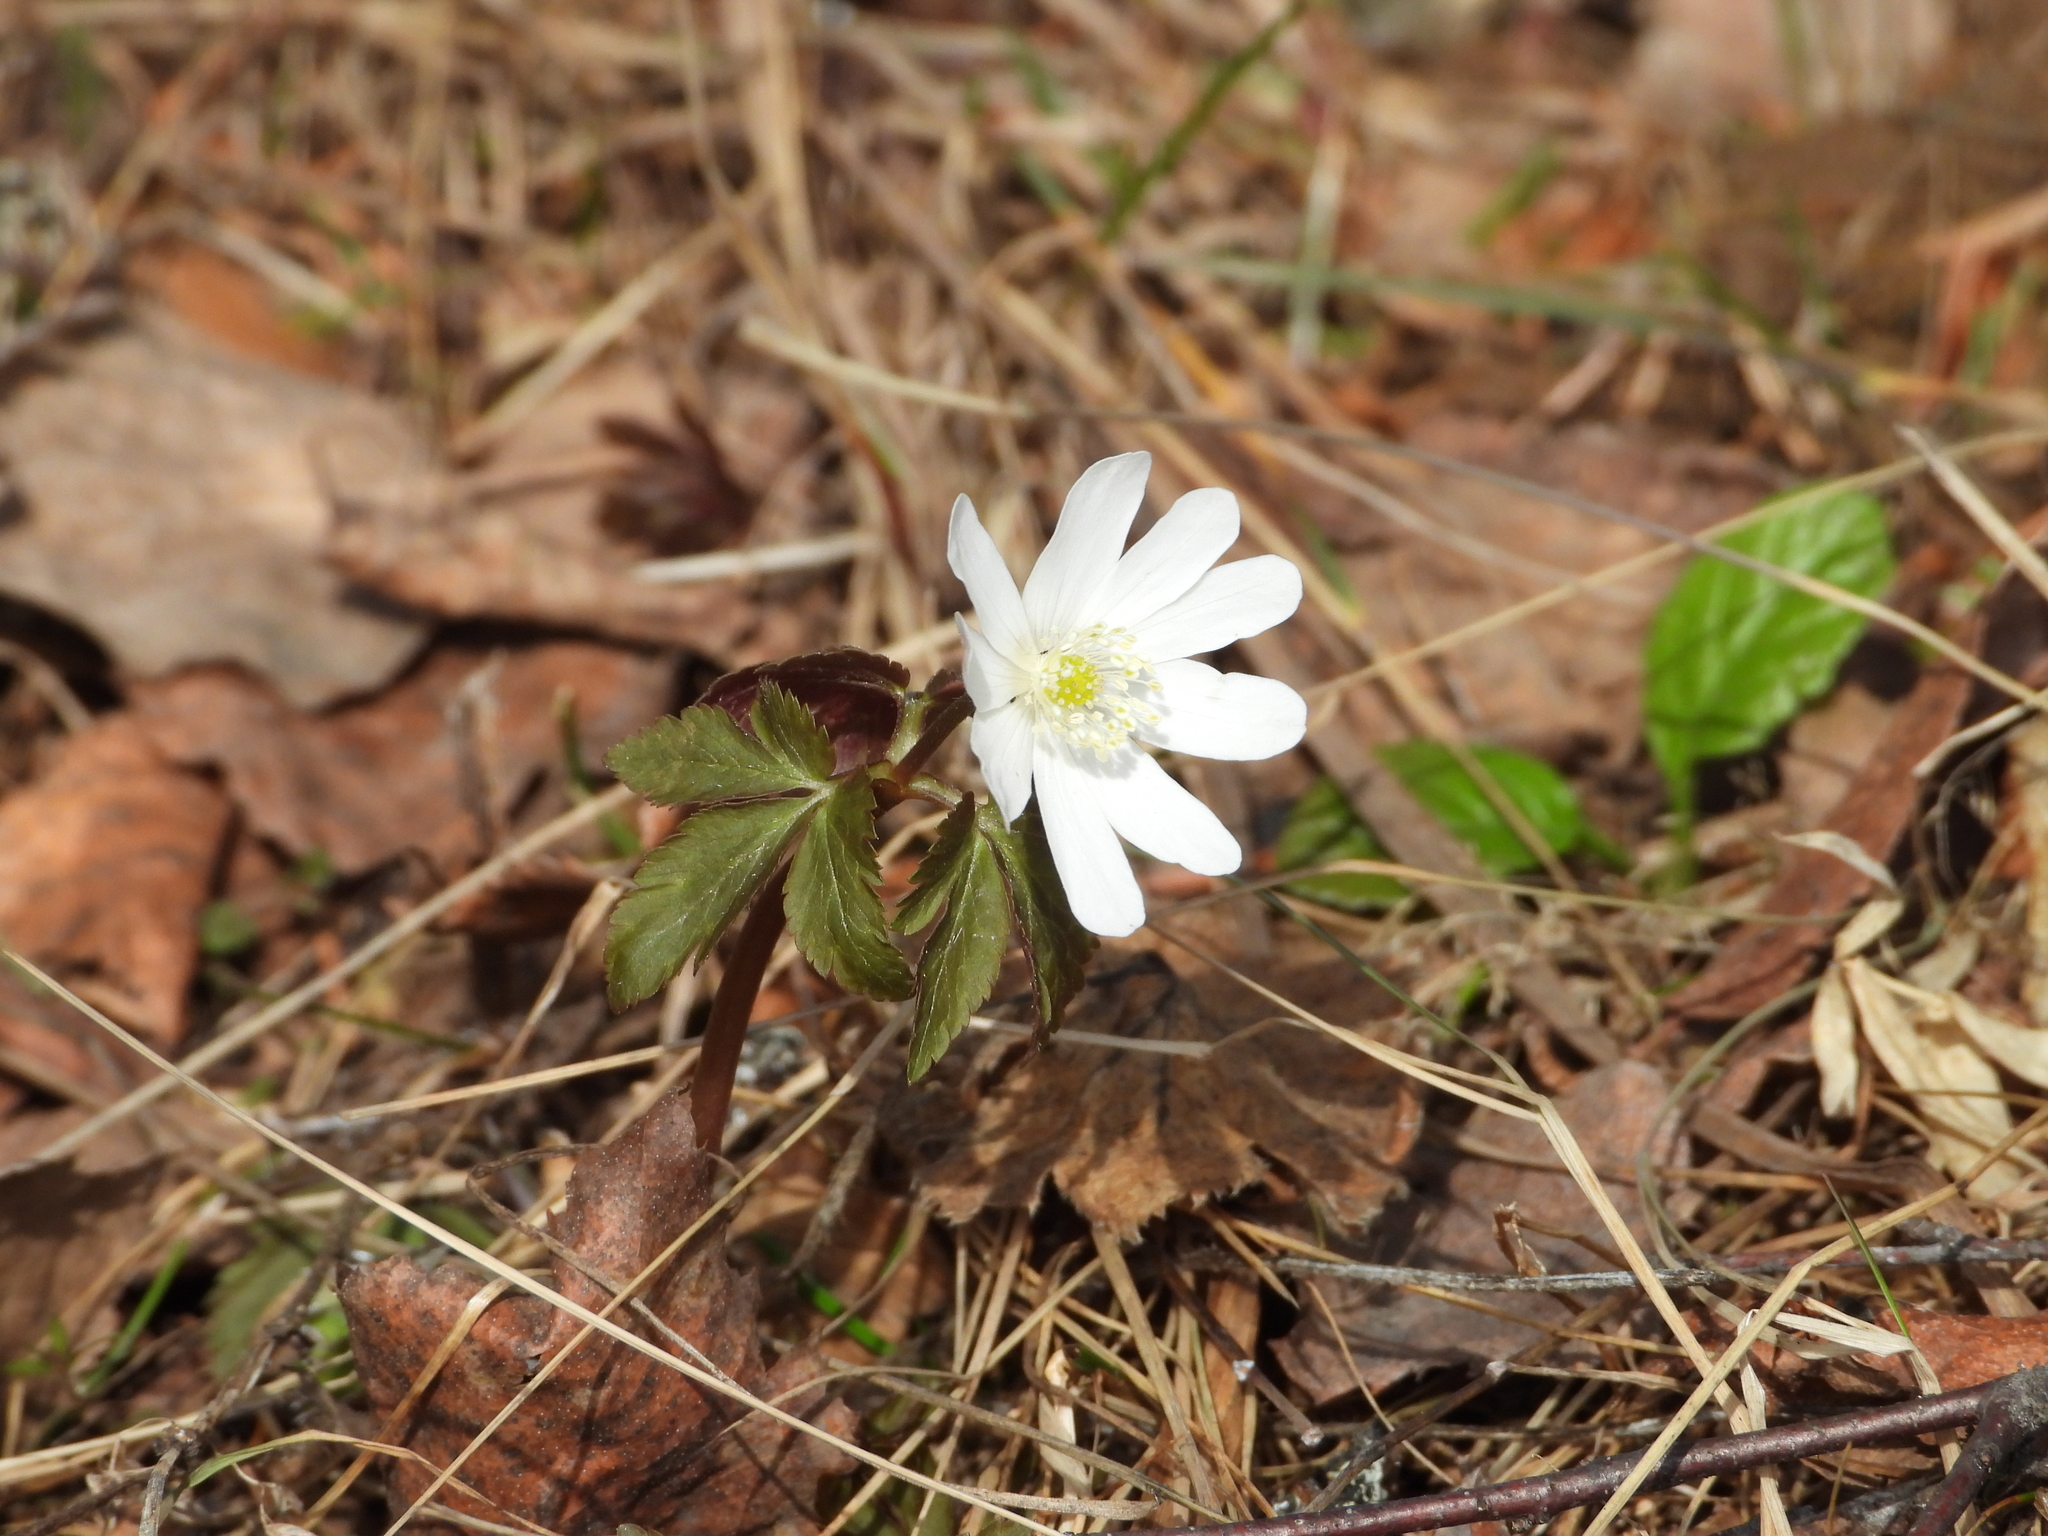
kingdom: Plantae
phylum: Tracheophyta
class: Magnoliopsida
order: Ranunculales
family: Ranunculaceae
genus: Anemone
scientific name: Anemone altaica
